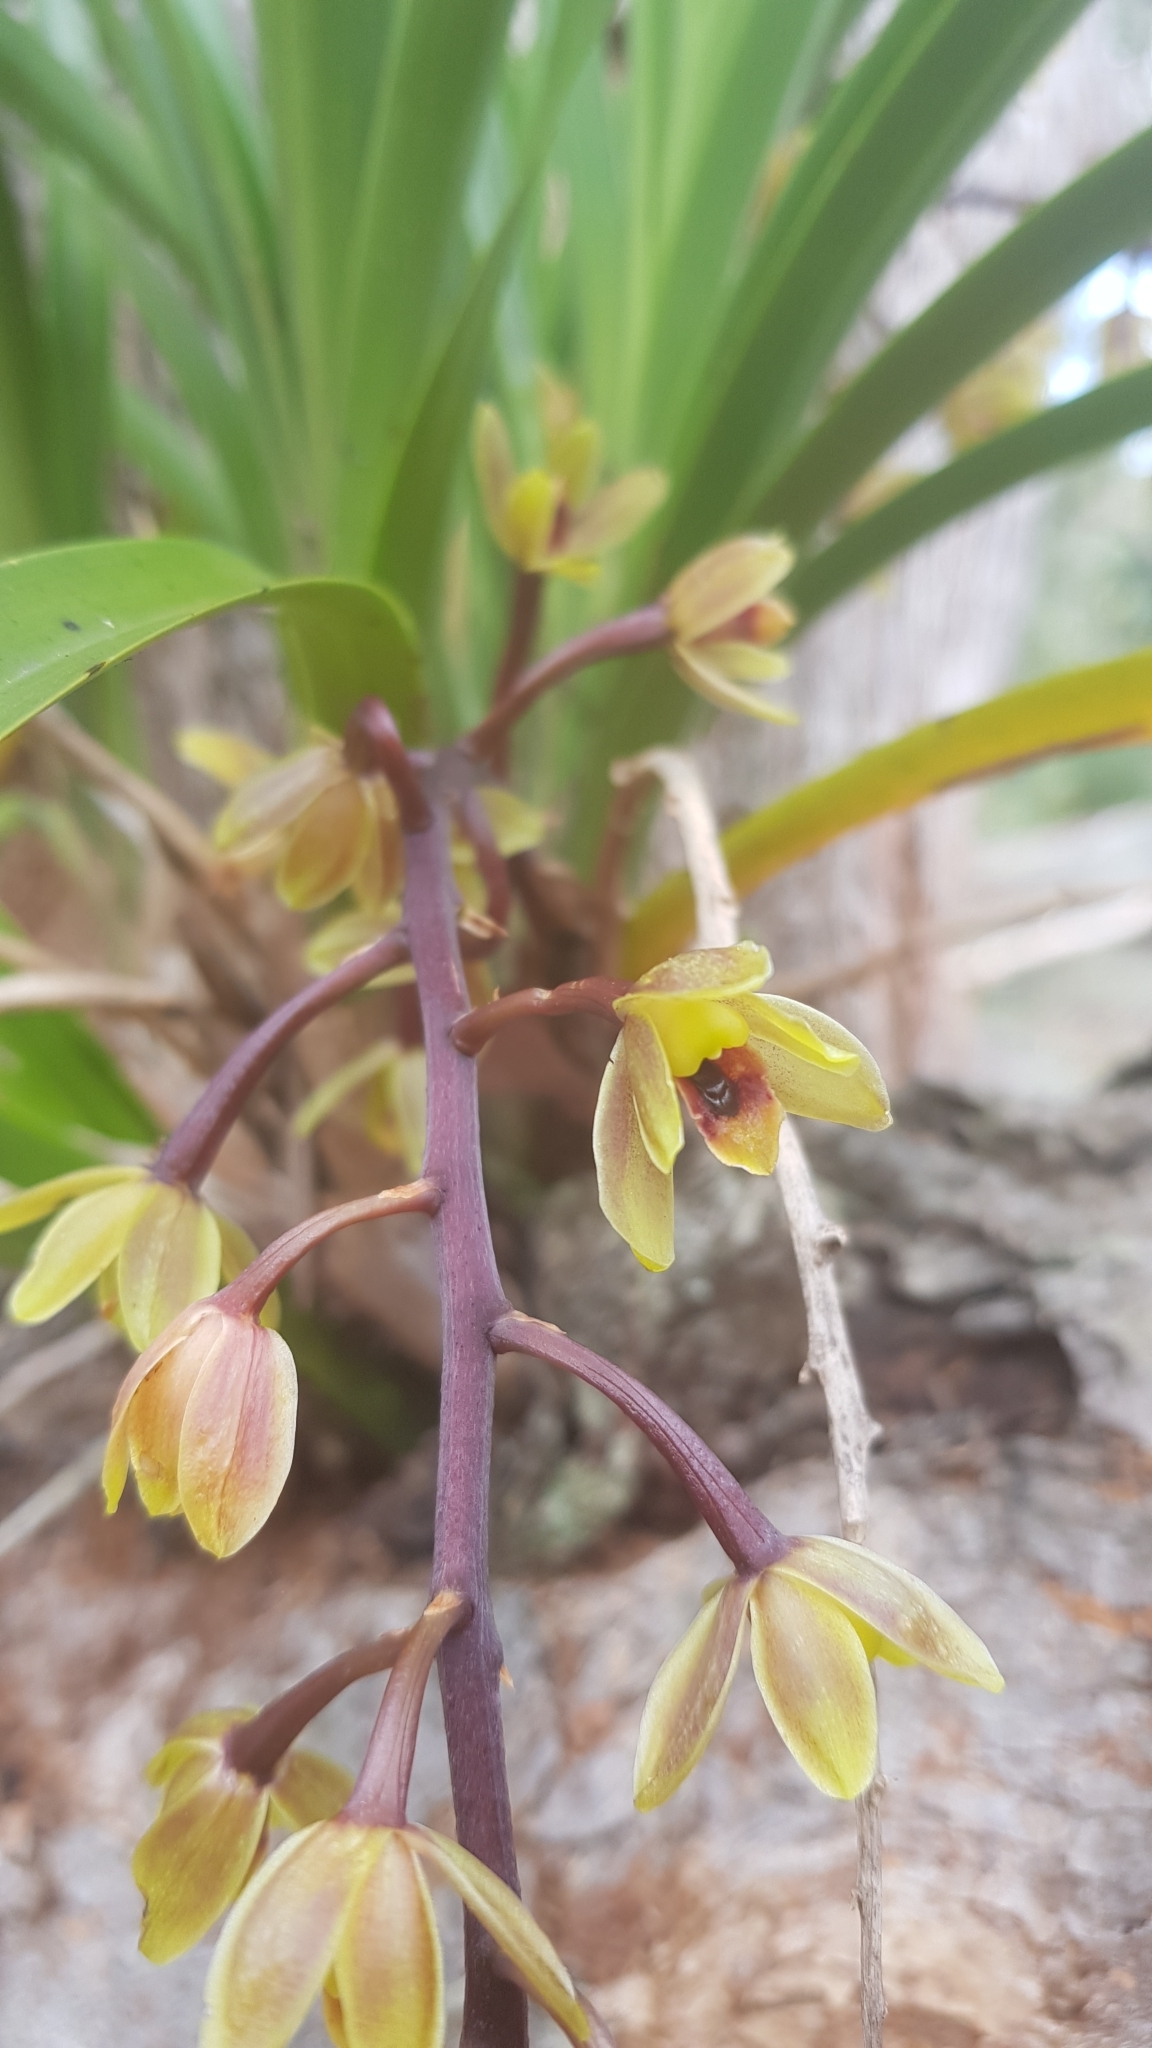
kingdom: Plantae
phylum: Tracheophyta
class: Liliopsida
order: Asparagales
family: Orchidaceae
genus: Cymbidium
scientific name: Cymbidium suave
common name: Snake orchid
